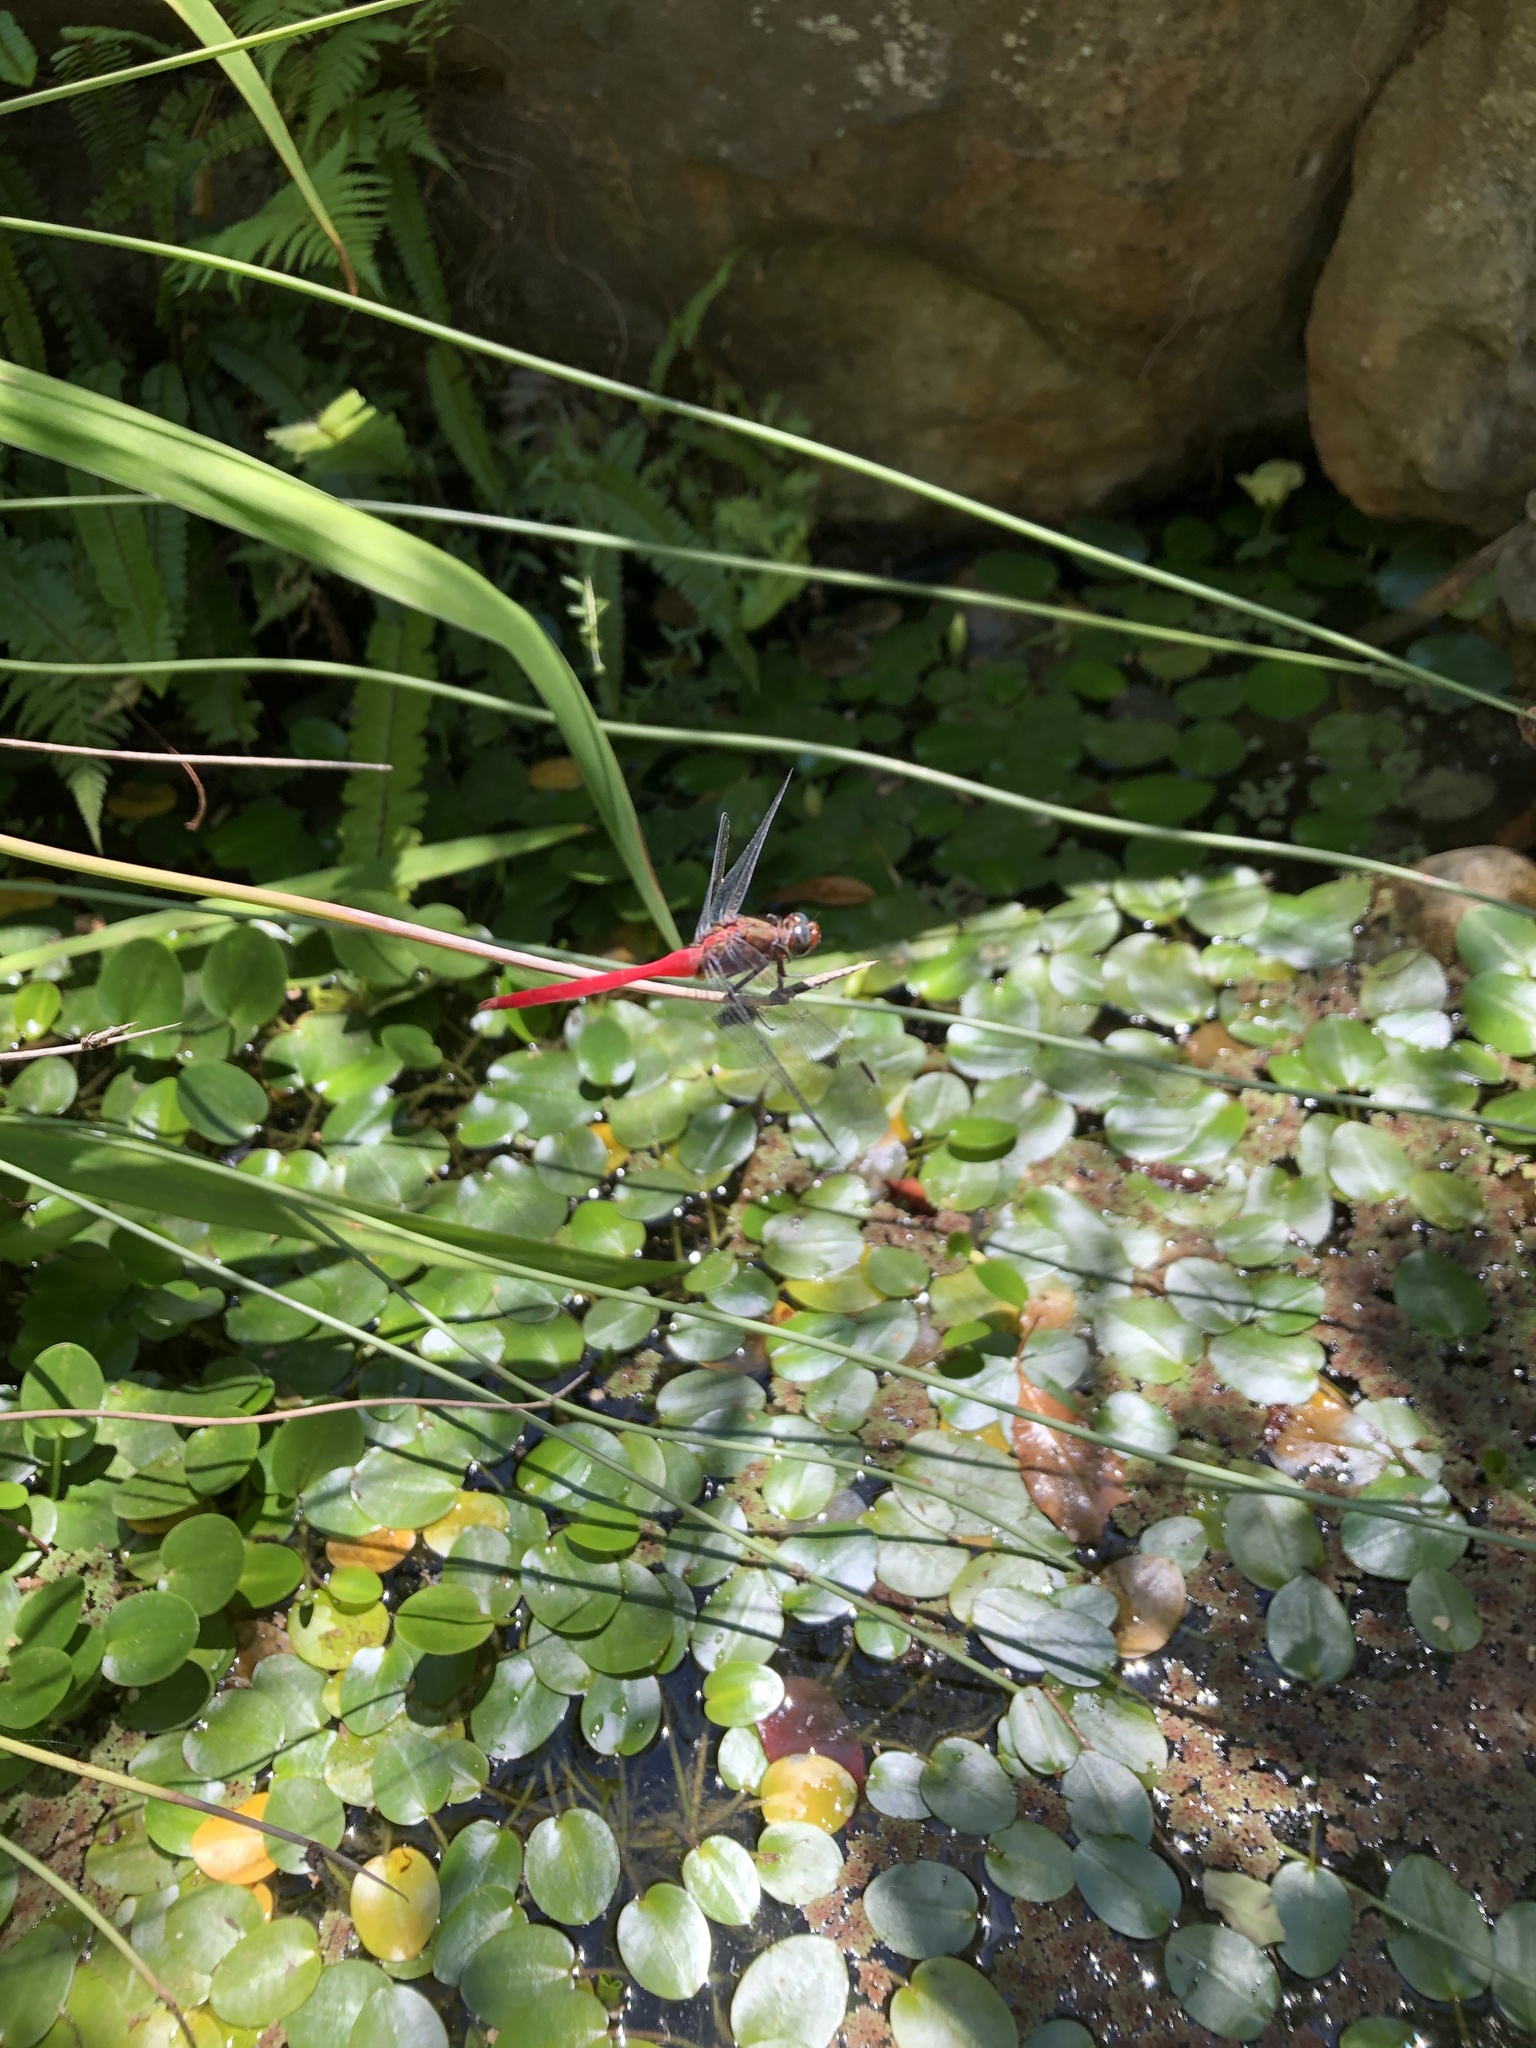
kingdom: Animalia
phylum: Arthropoda
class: Insecta
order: Odonata
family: Libellulidae
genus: Orthetrum
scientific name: Orthetrum villosovittatum
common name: Firery skimmer
